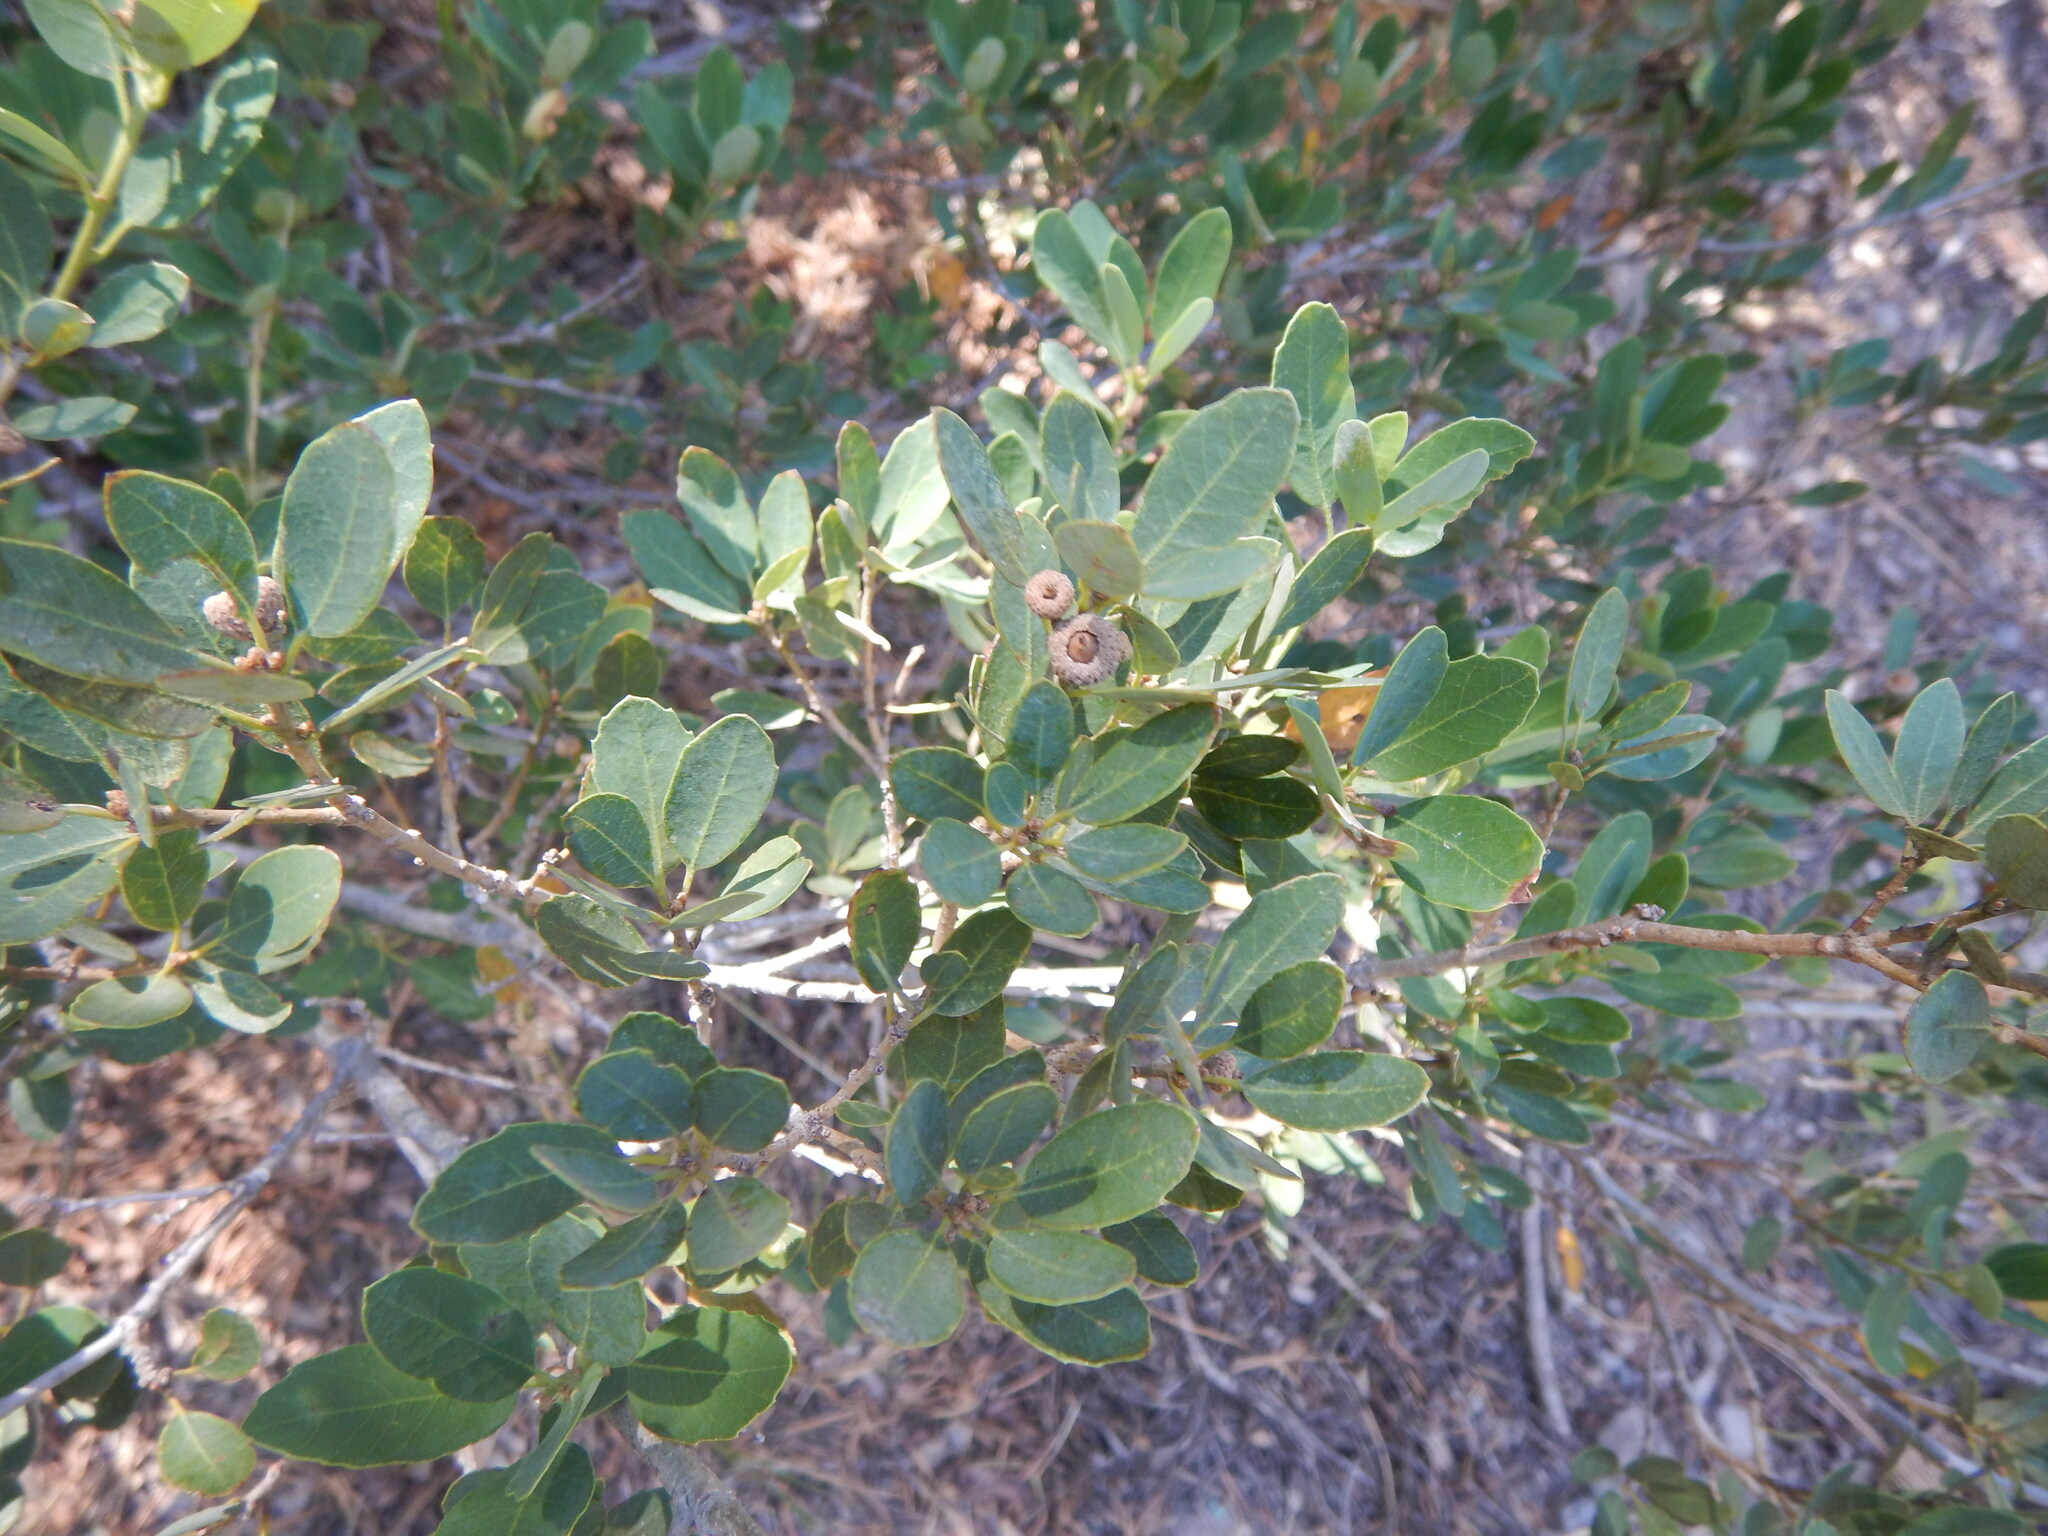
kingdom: Plantae
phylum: Tracheophyta
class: Magnoliopsida
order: Fagales
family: Fagaceae
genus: Quercus
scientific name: Quercus vacciniifolia
